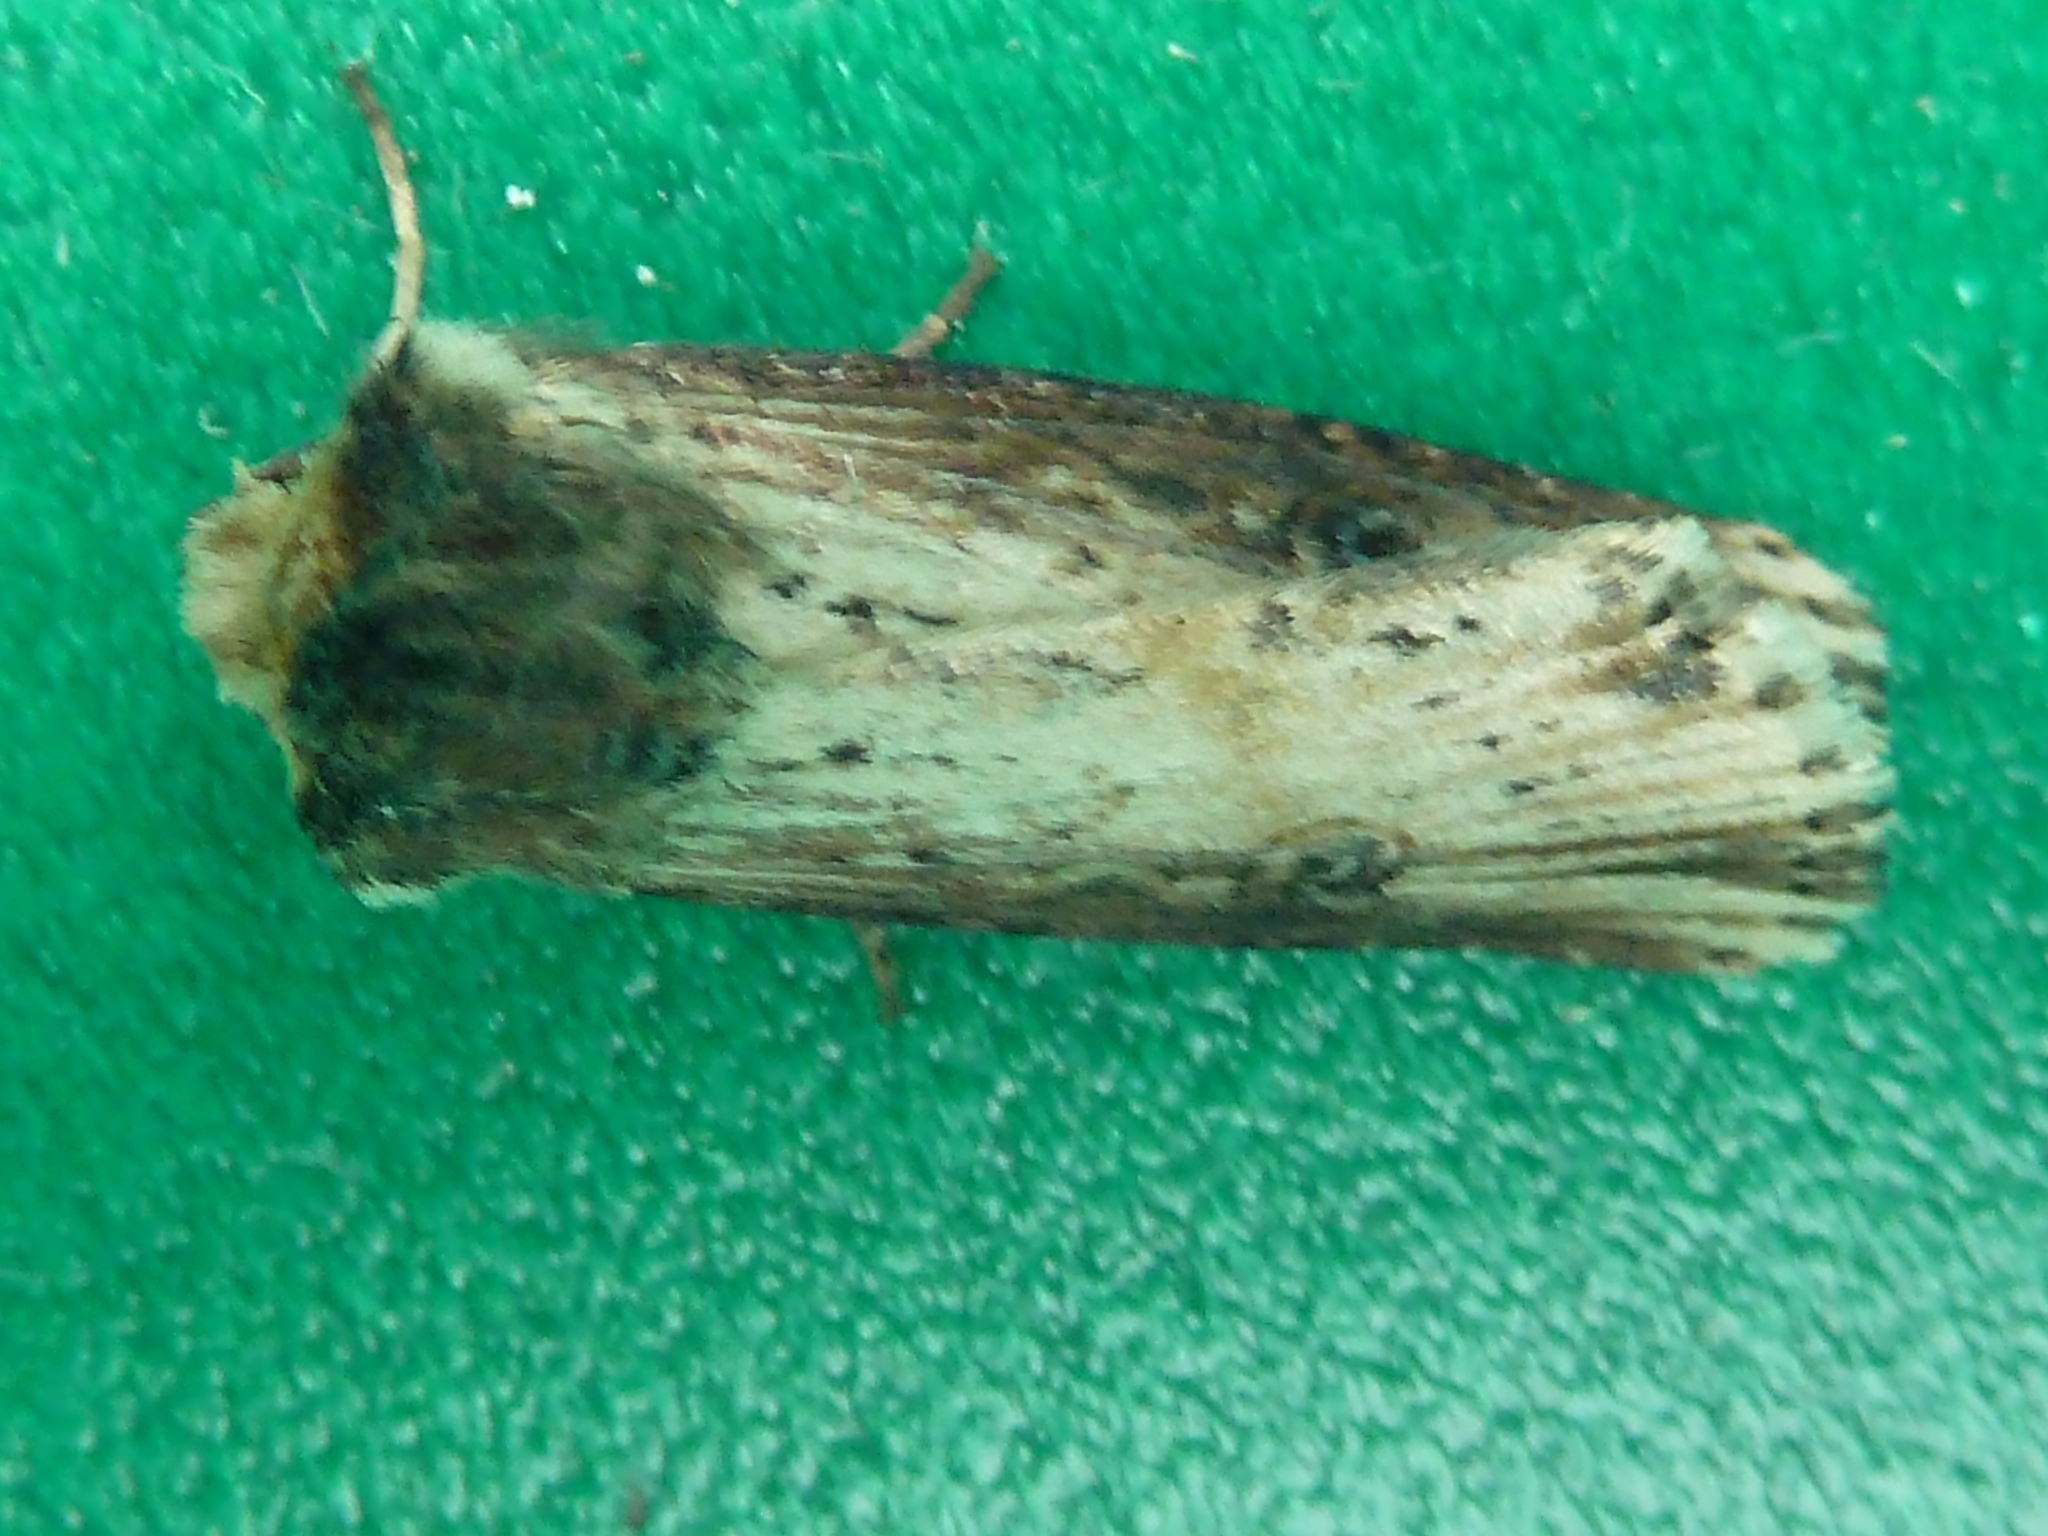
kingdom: Animalia
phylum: Arthropoda
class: Insecta
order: Lepidoptera
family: Noctuidae
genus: Axylia
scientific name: Axylia putris
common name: Flame
